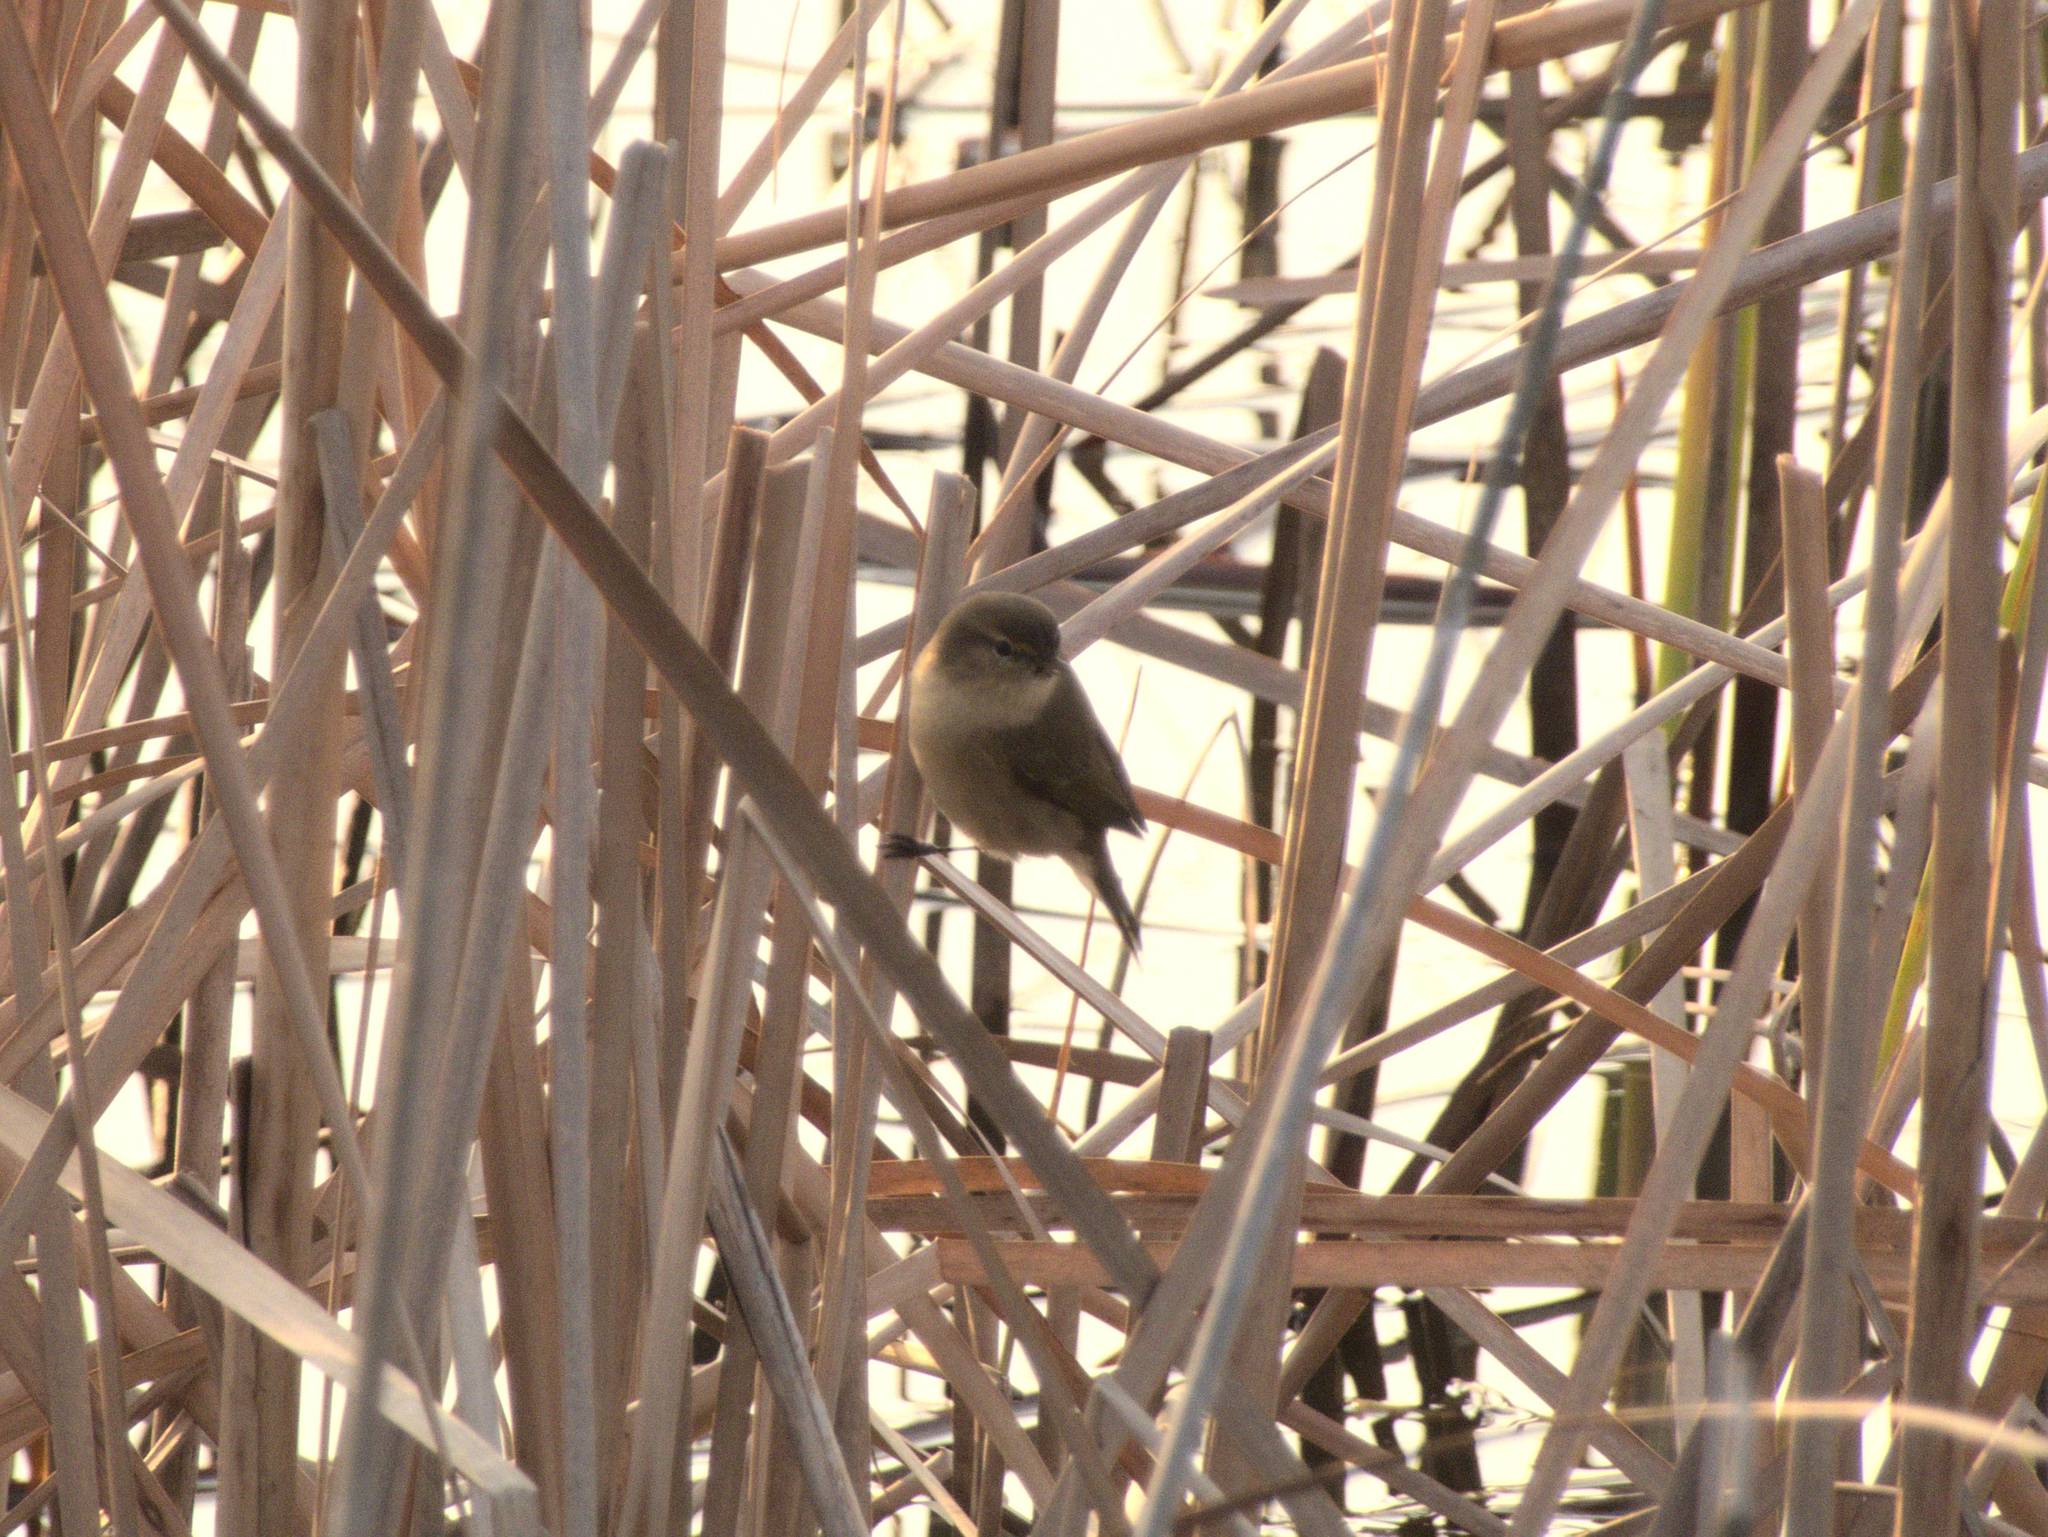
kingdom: Animalia
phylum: Chordata
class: Aves
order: Passeriformes
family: Cettiidae
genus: Cettia
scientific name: Cettia cetti
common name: Cetti's warbler
